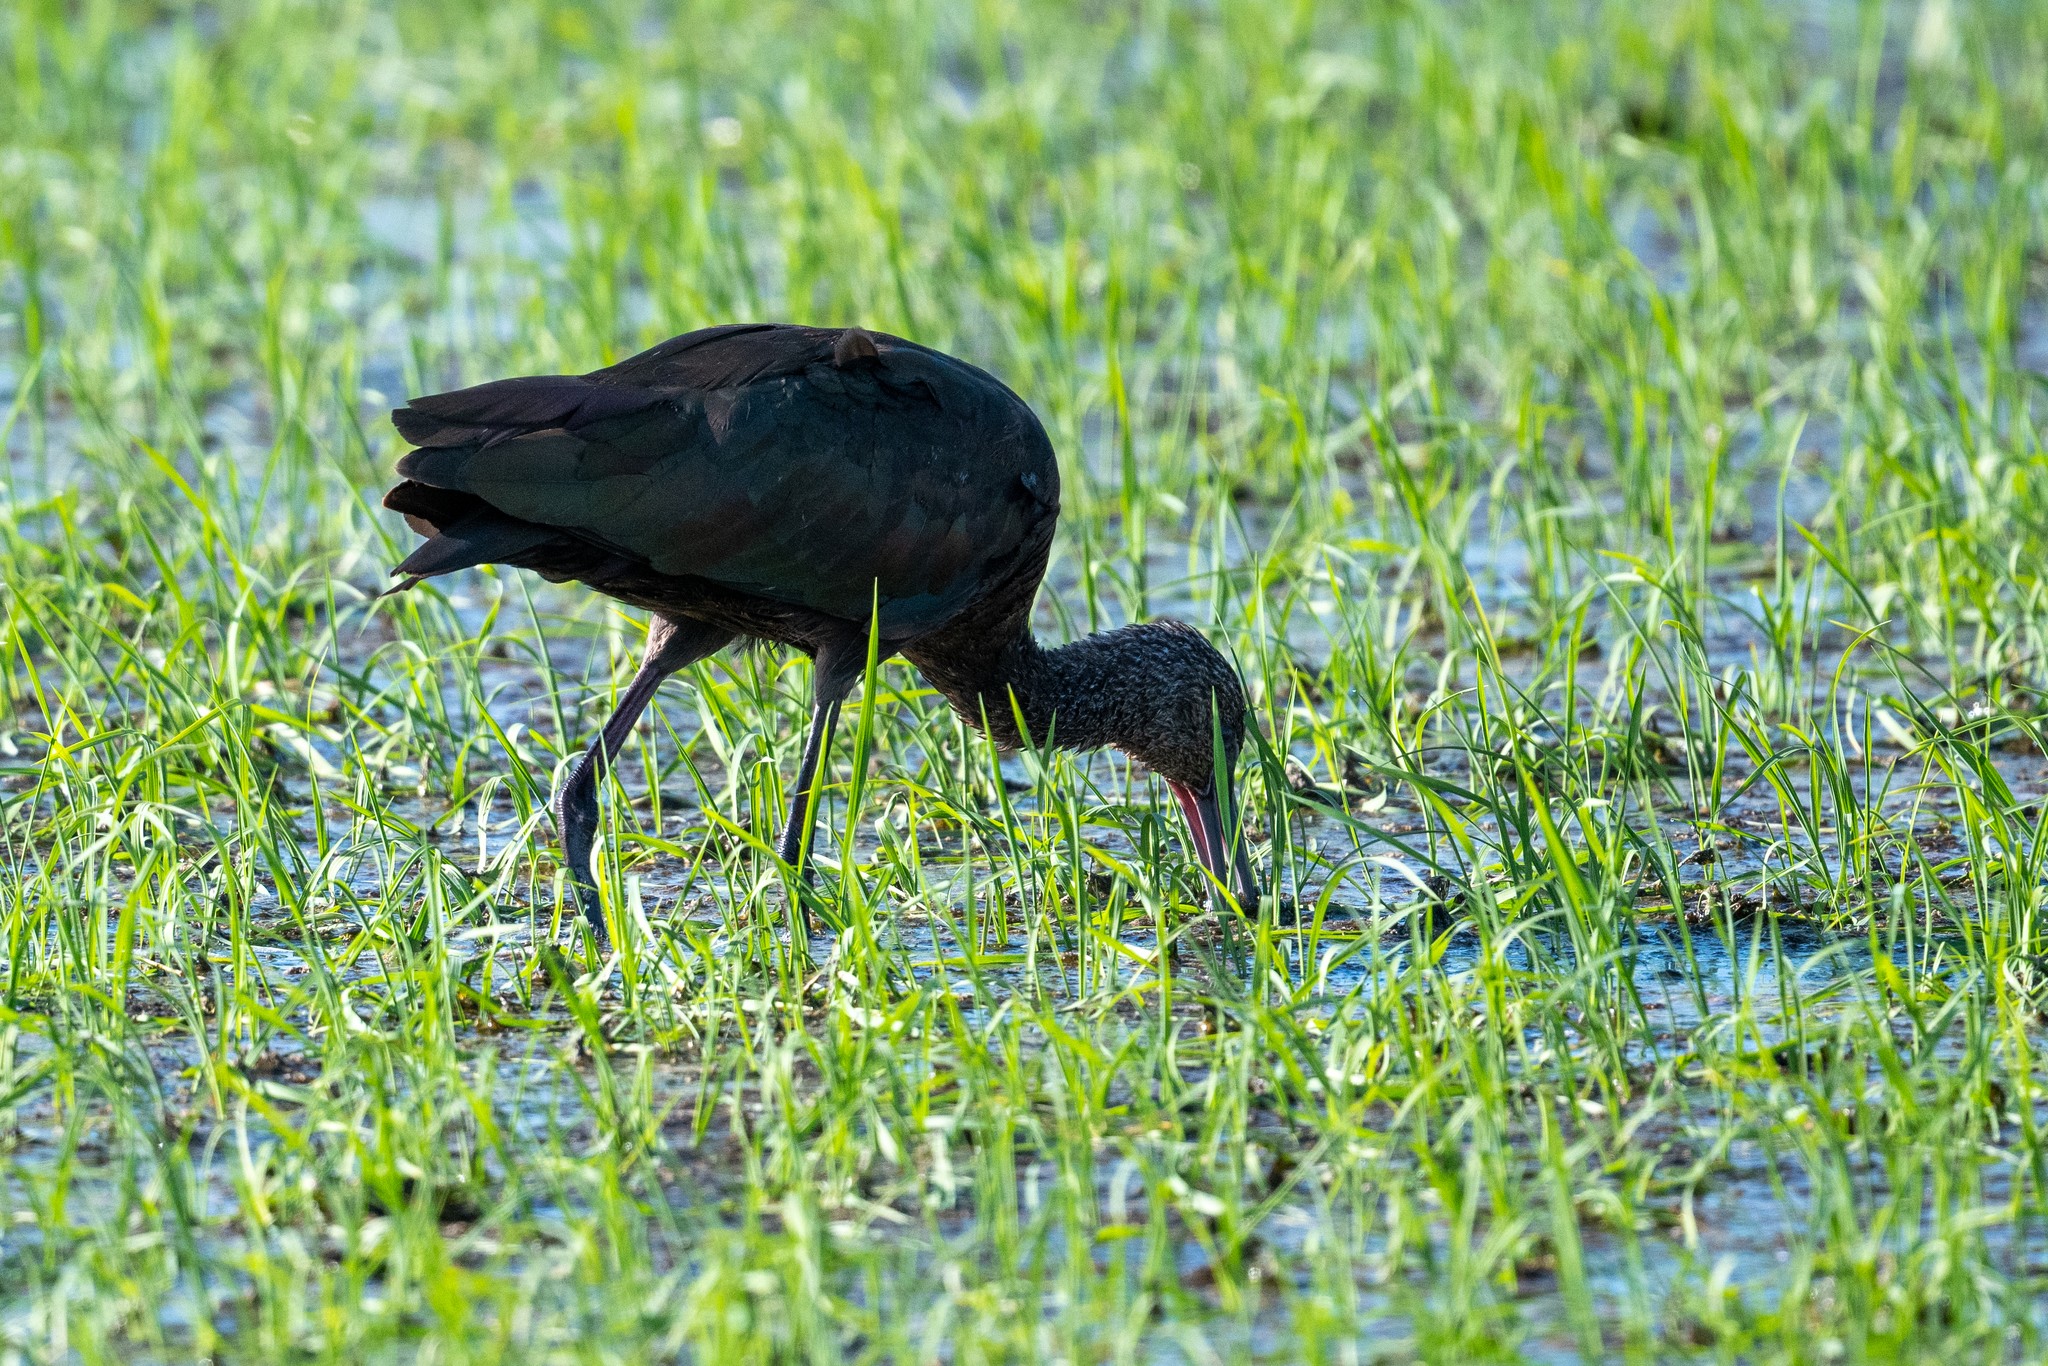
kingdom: Animalia
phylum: Chordata
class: Aves
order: Pelecaniformes
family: Threskiornithidae
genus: Plegadis
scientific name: Plegadis chihi
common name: White-faced ibis
